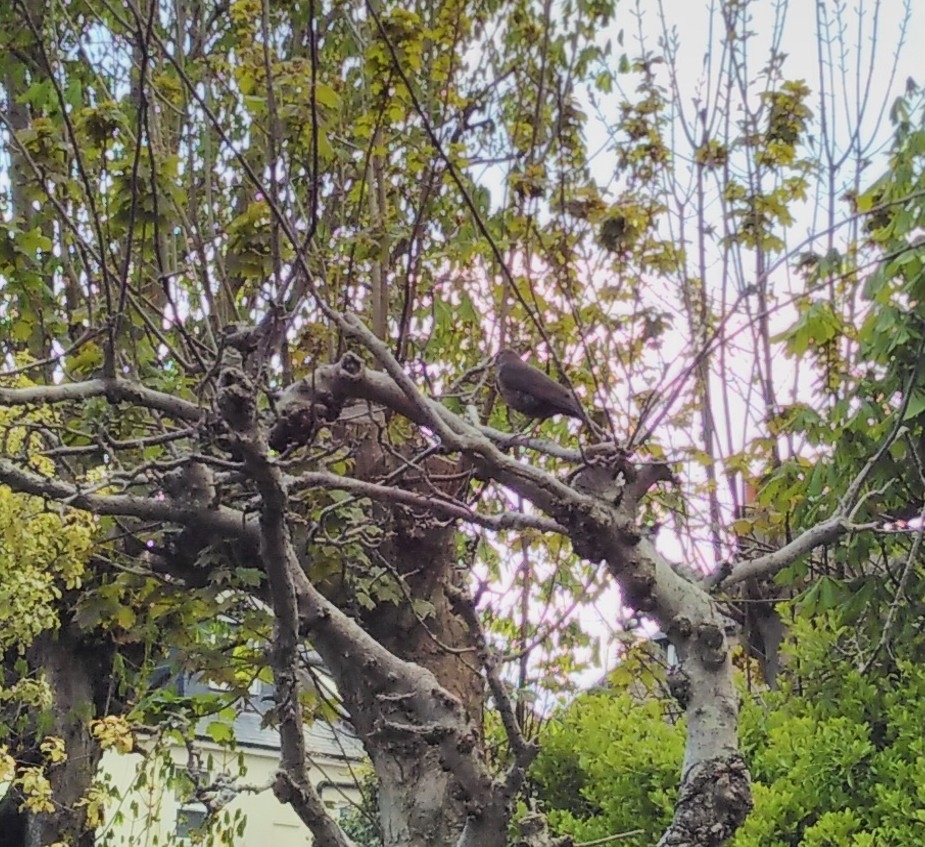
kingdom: Animalia
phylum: Chordata
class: Aves
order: Passeriformes
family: Turdidae
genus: Turdus
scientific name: Turdus merula
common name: Common blackbird
